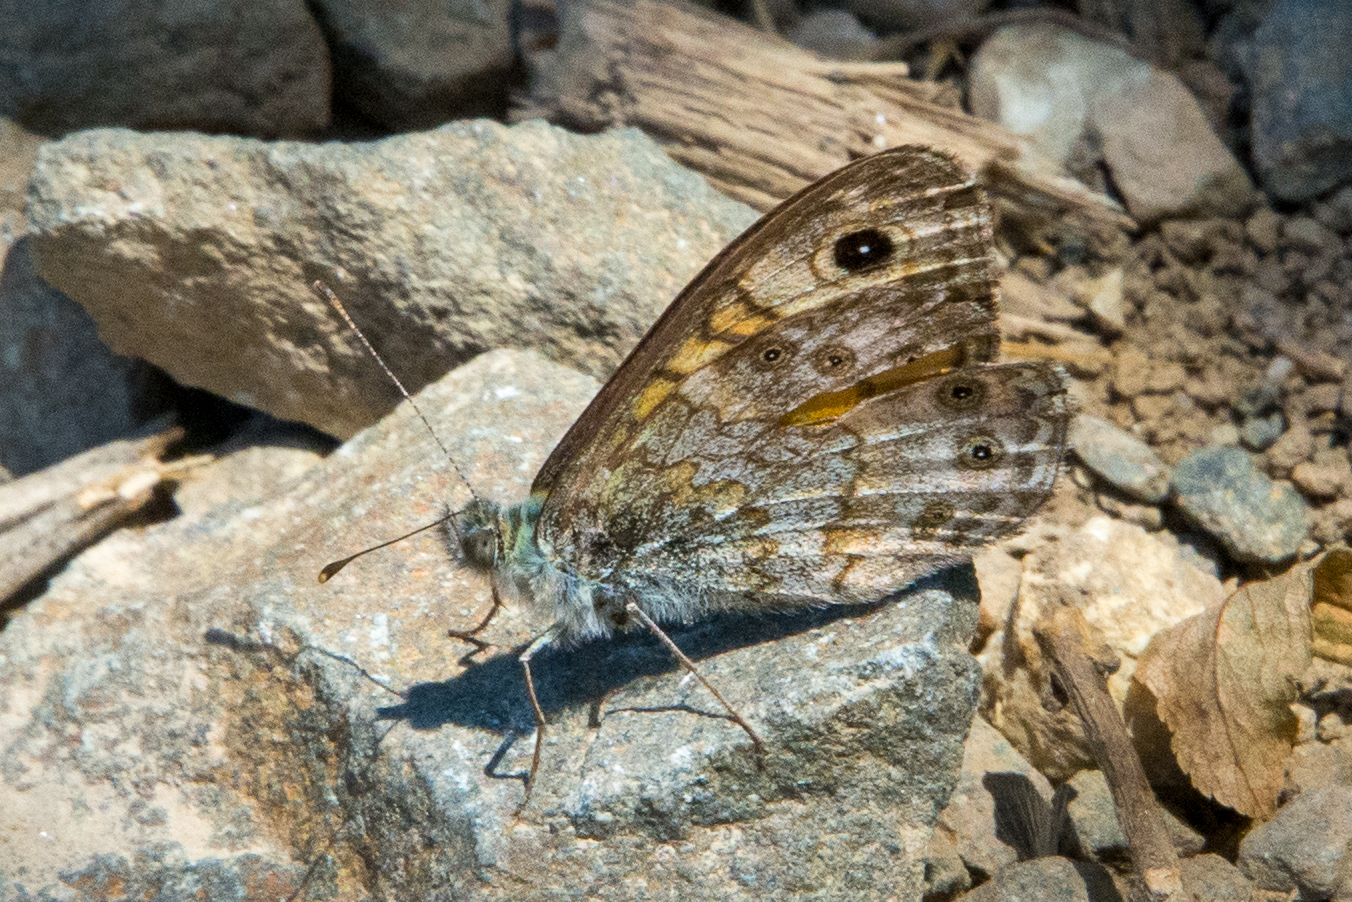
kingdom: Animalia
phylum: Arthropoda
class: Insecta
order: Lepidoptera
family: Nymphalidae
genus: Pararge
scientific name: Pararge Lasiommata megera
